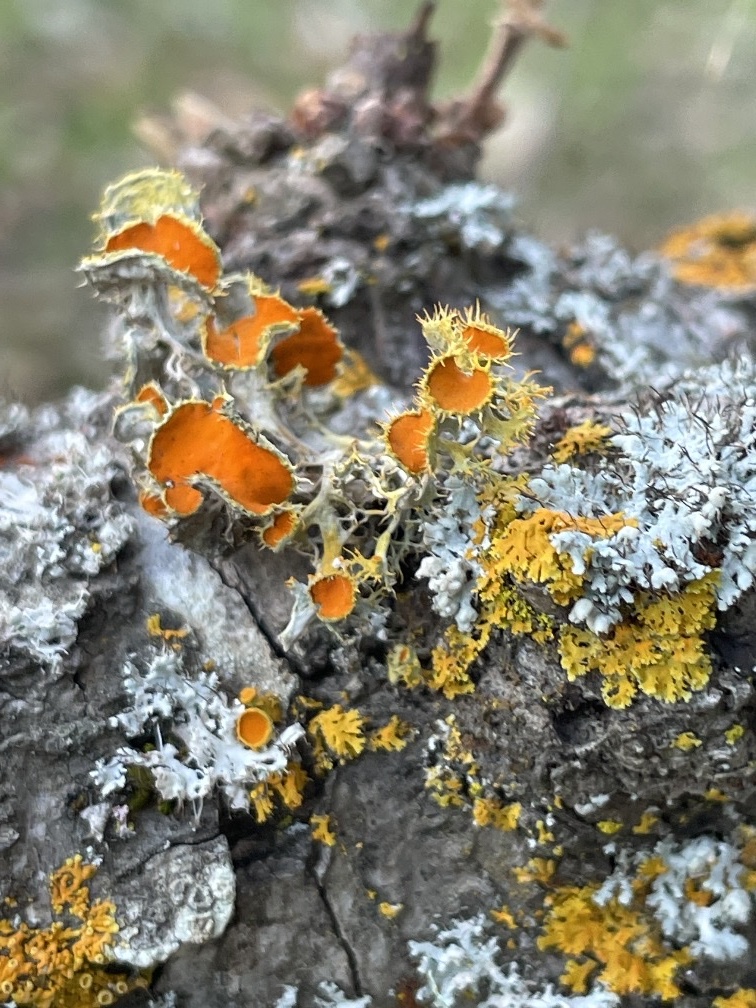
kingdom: Fungi
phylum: Ascomycota
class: Lecanoromycetes
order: Teloschistales
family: Teloschistaceae
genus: Niorma
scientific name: Niorma chrysophthalma
